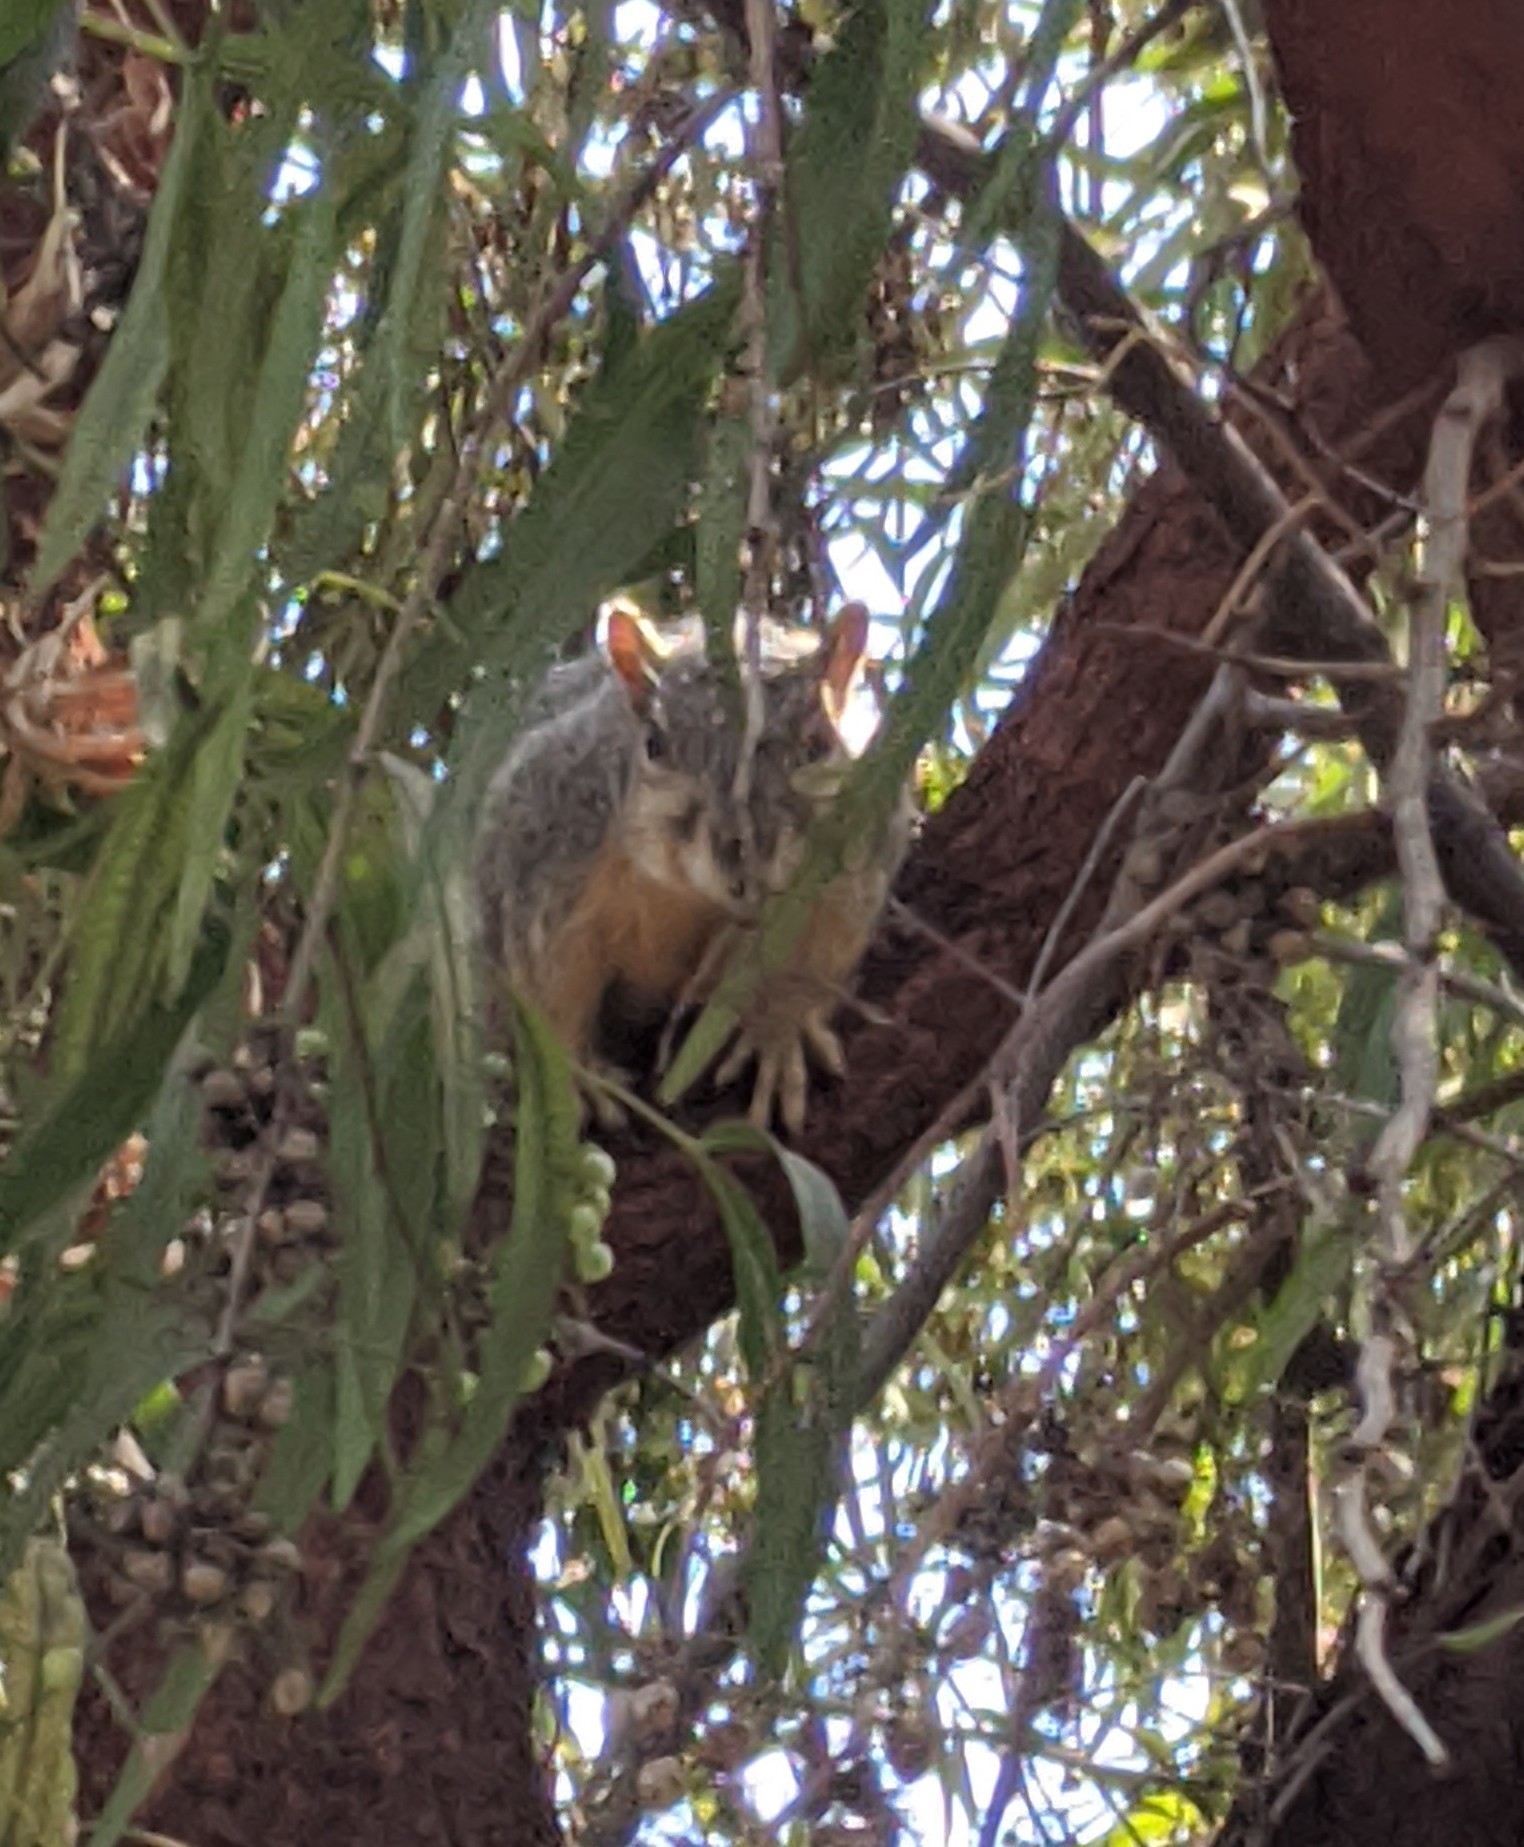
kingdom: Animalia
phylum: Chordata
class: Mammalia
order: Rodentia
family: Sciuridae
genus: Sciurus
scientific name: Sciurus niger
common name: Fox squirrel
